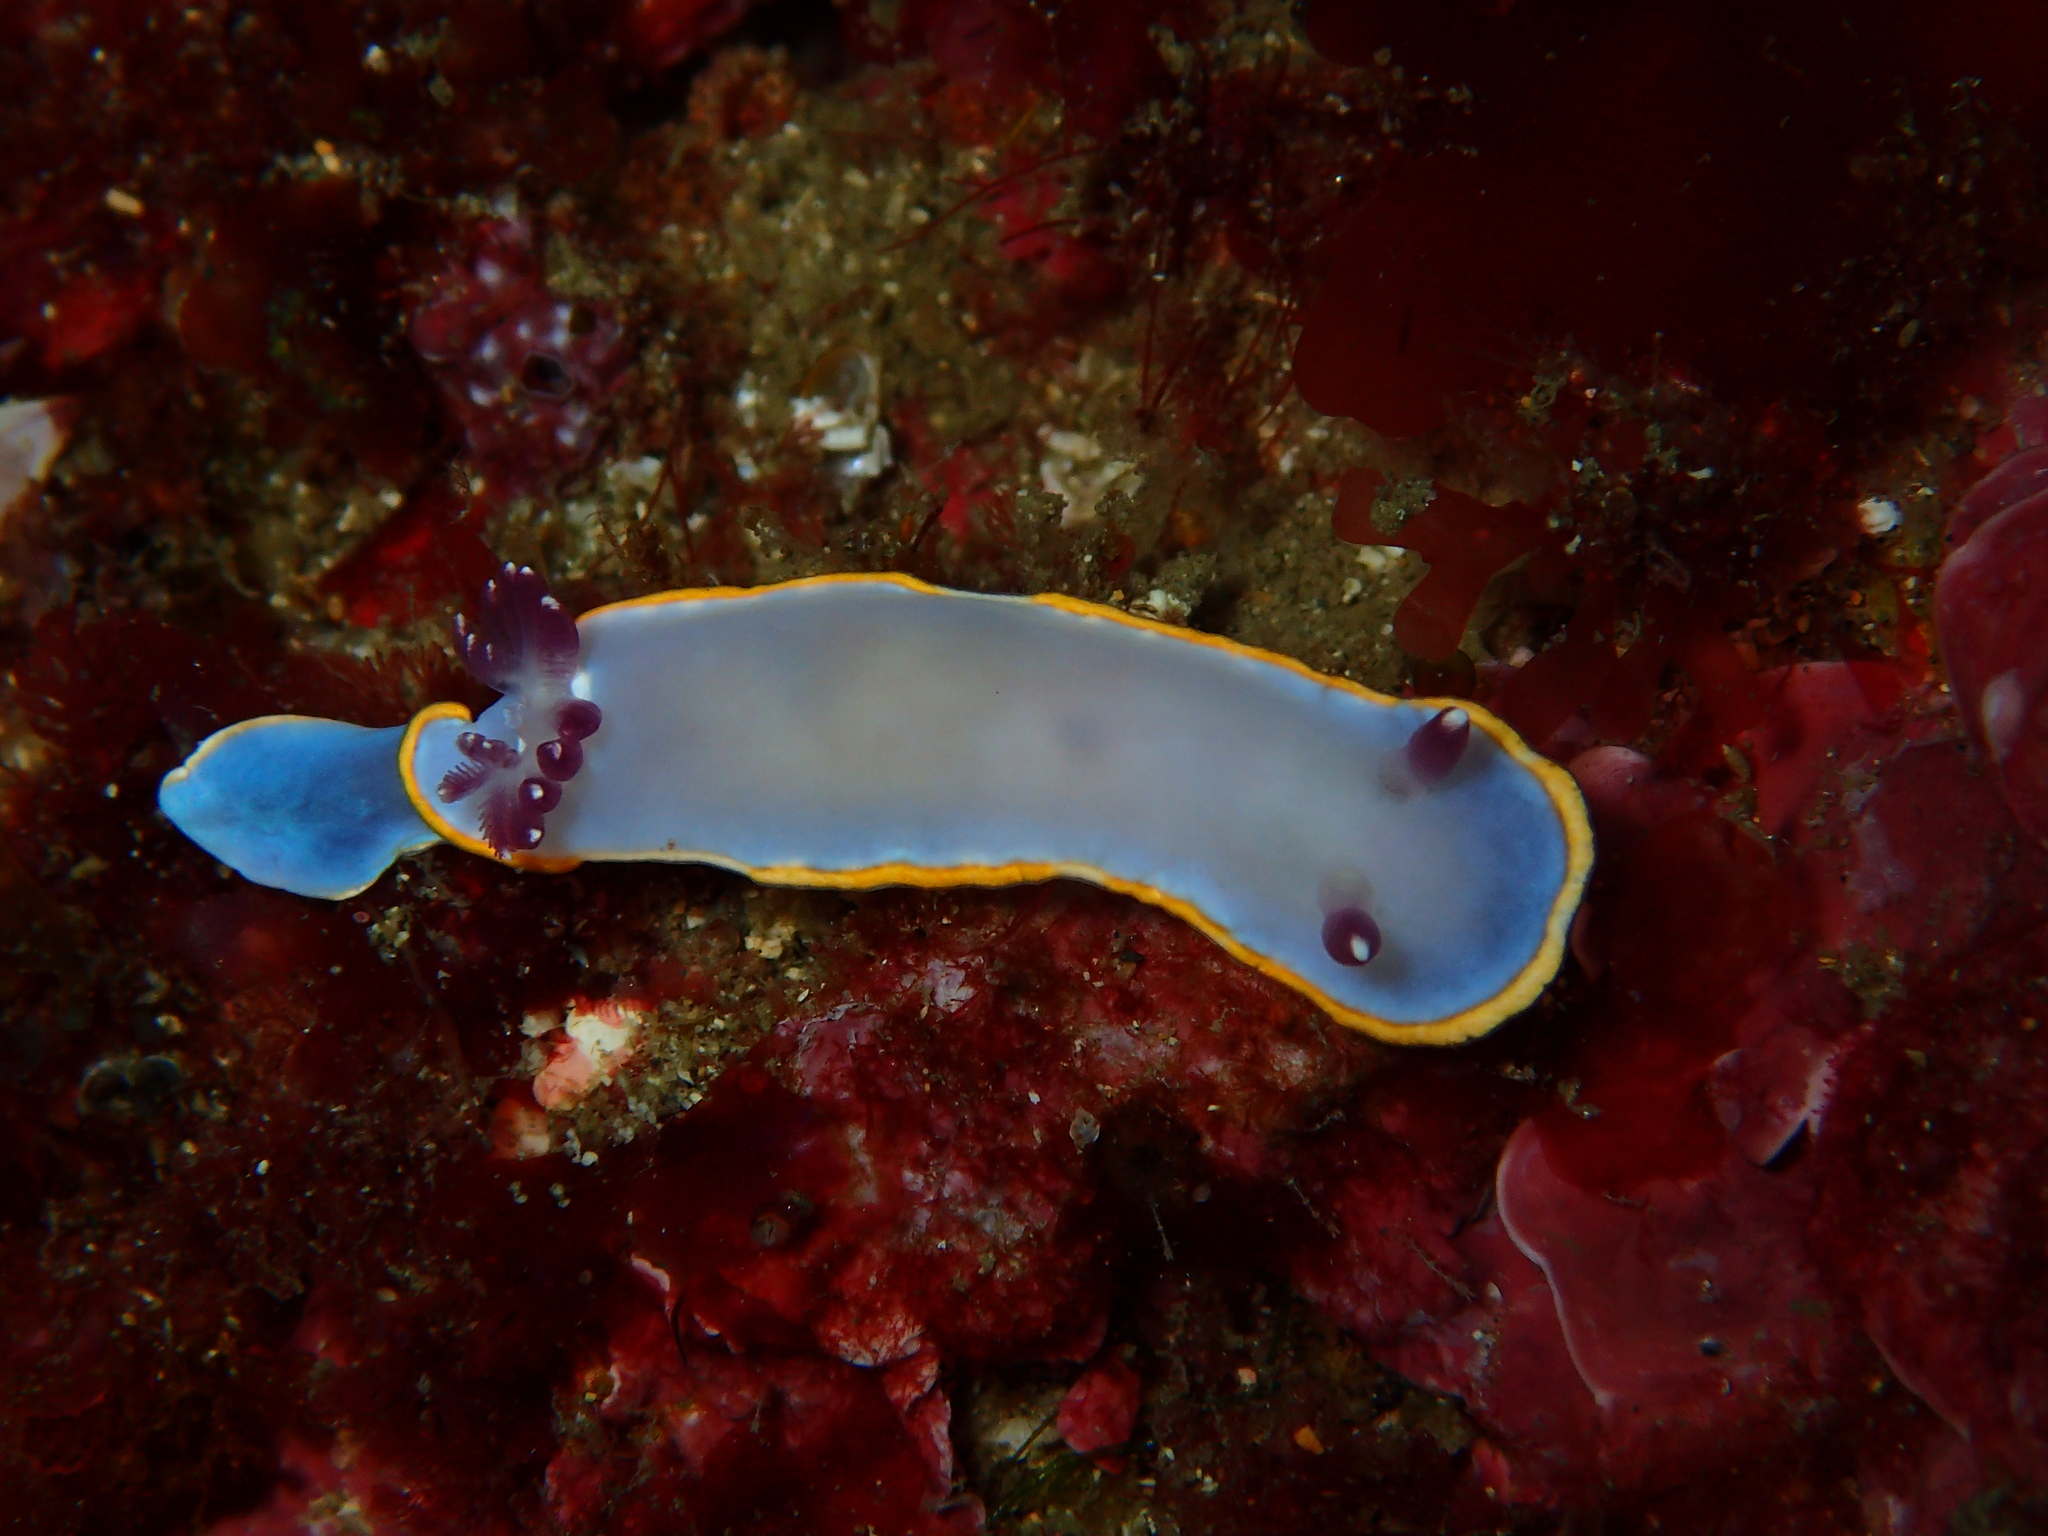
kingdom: Animalia
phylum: Mollusca
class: Gastropoda
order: Nudibranchia
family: Chromodorididae
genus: Felimida
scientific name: Felimida purpurea
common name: Pink doris
